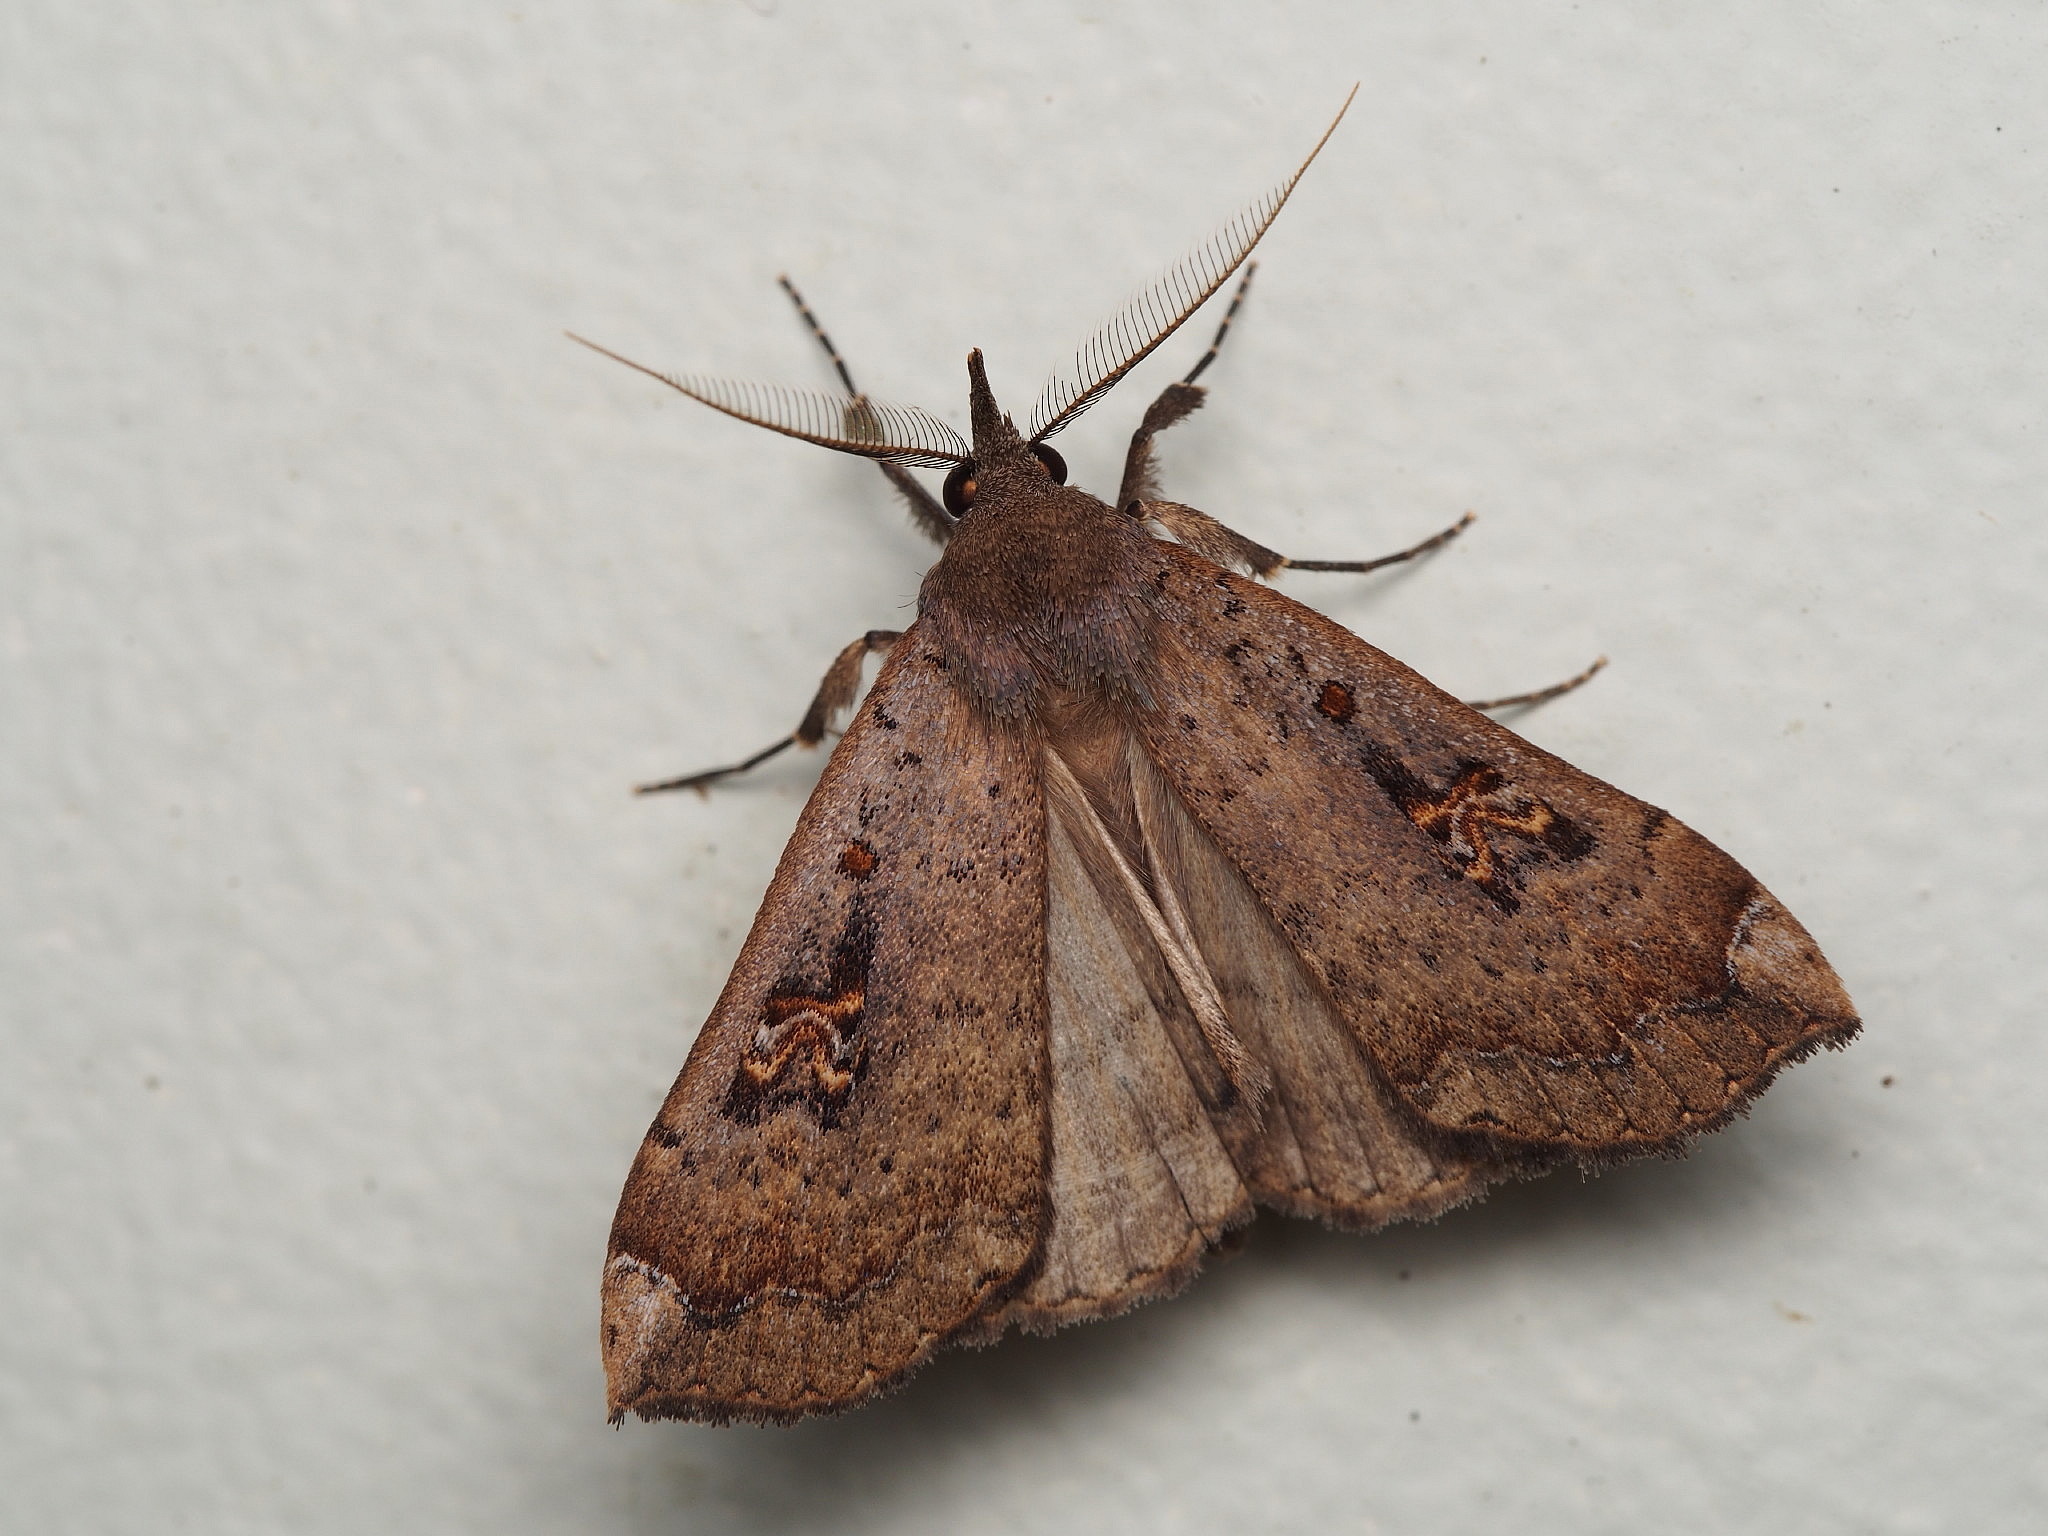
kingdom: Animalia
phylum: Arthropoda
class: Insecta
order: Lepidoptera
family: Erebidae
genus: Rhapsa
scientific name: Rhapsa scotosialis
